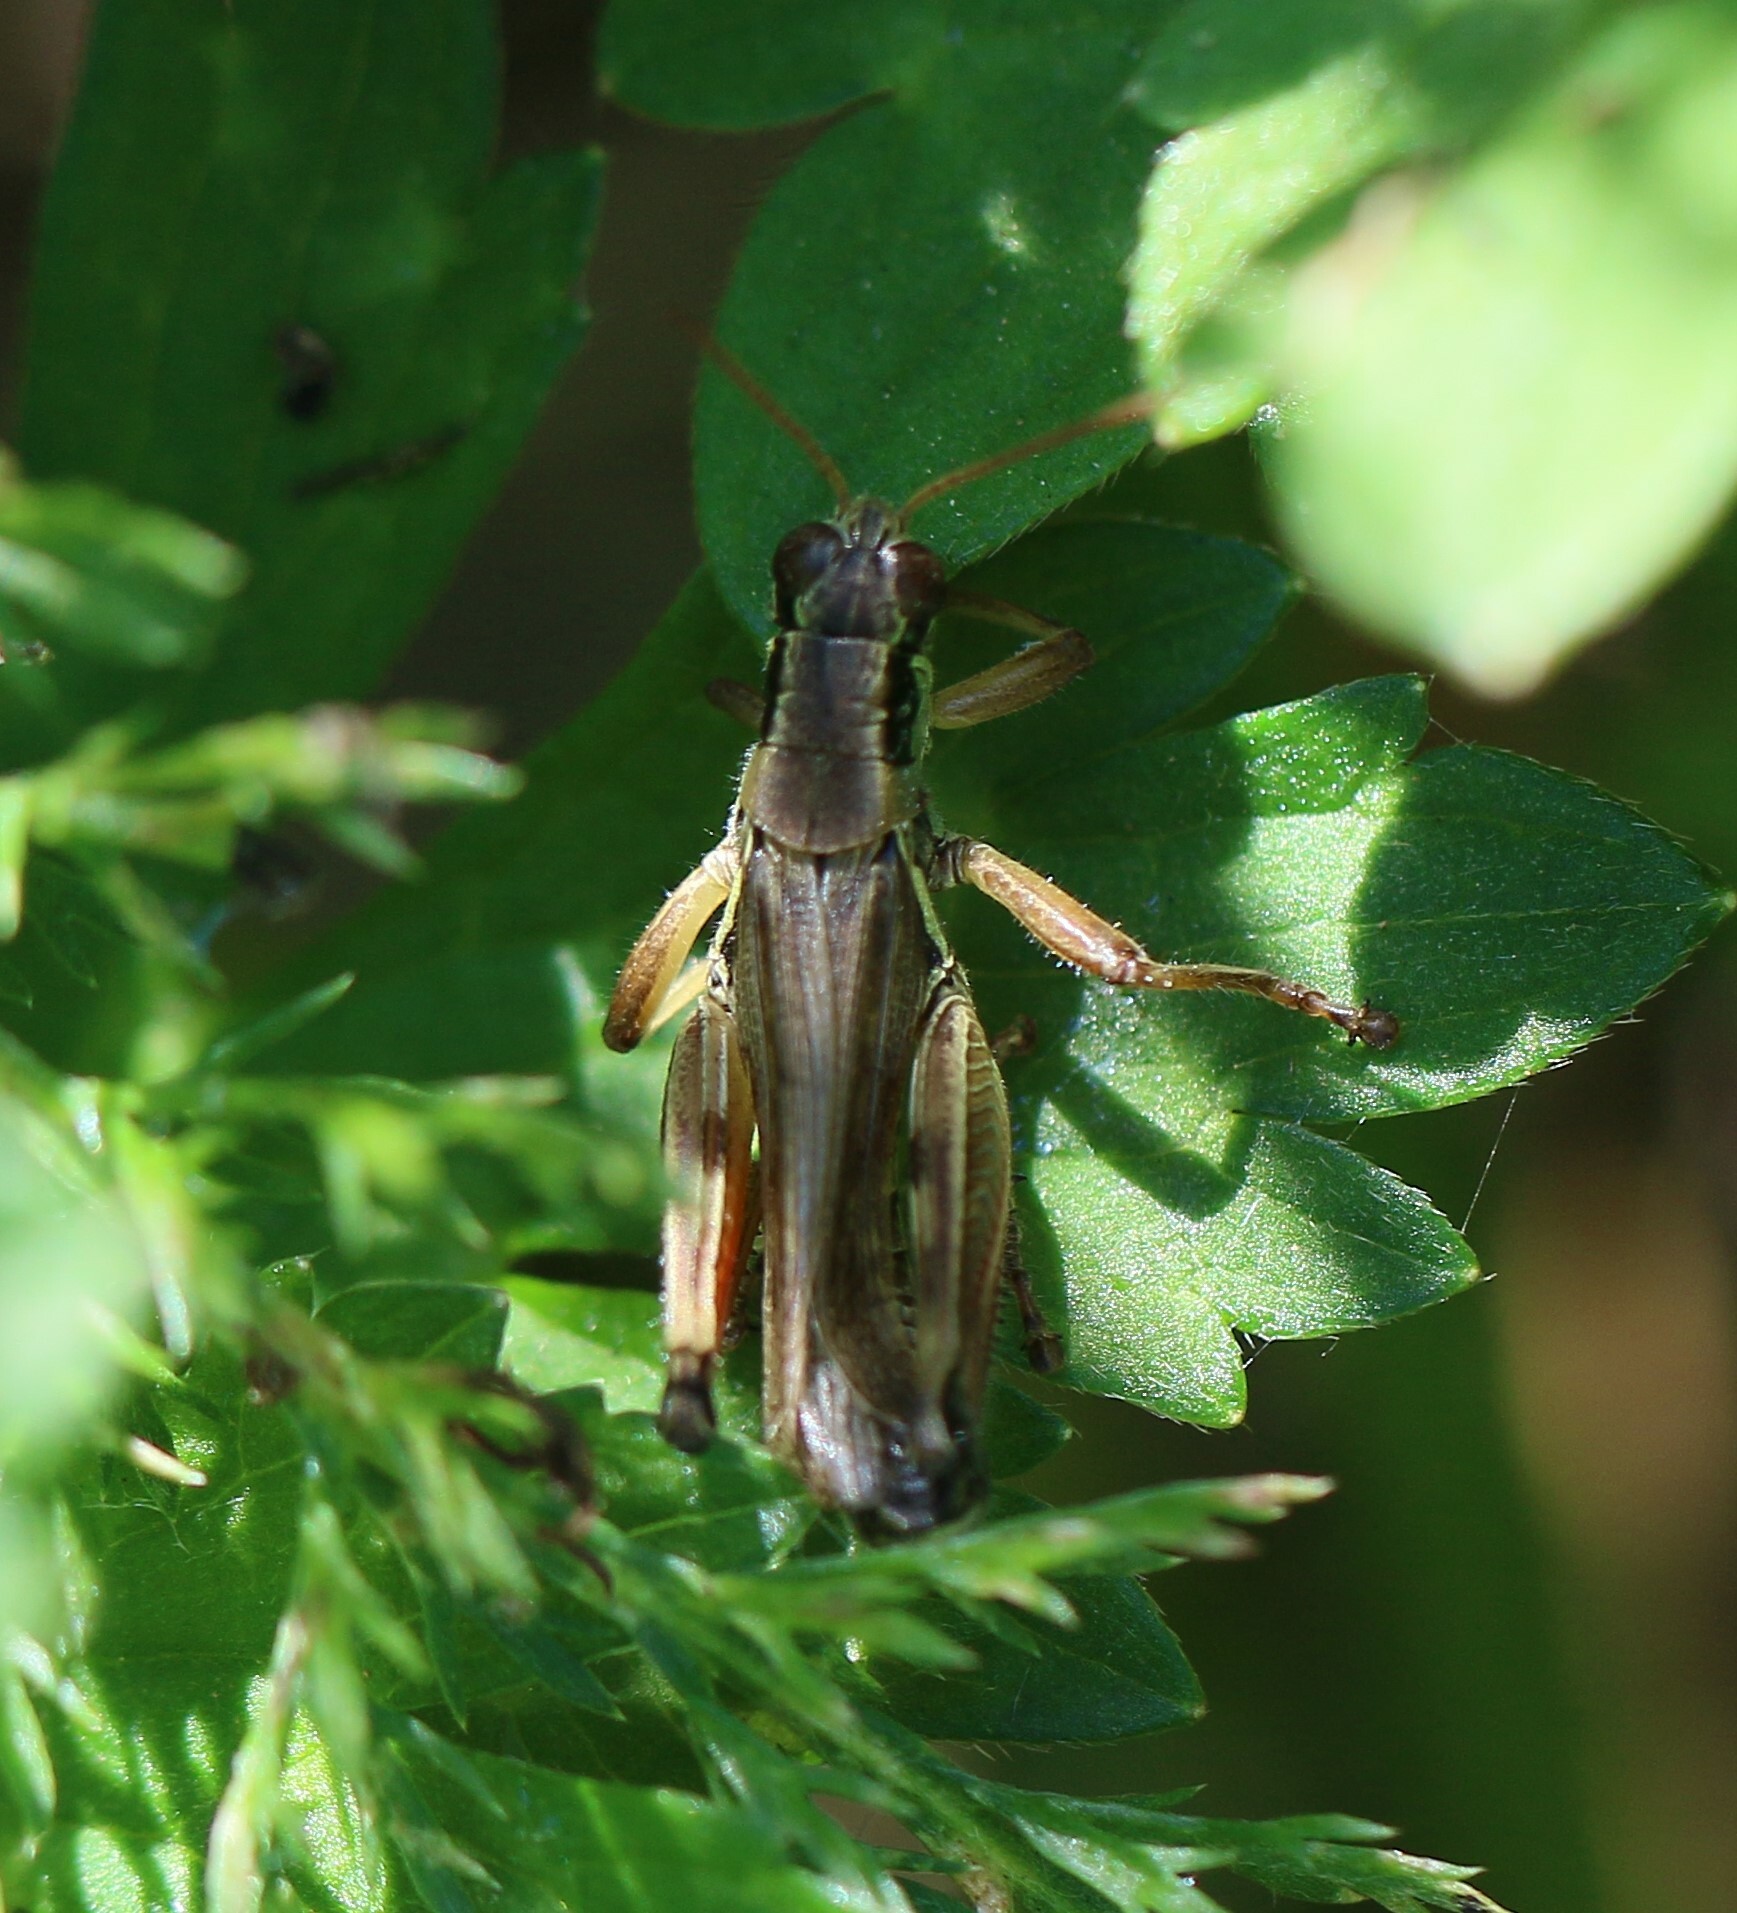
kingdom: Animalia
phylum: Arthropoda
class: Insecta
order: Orthoptera
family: Acrididae
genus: Melanoplus
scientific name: Melanoplus borealis
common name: Northern grasshopper
